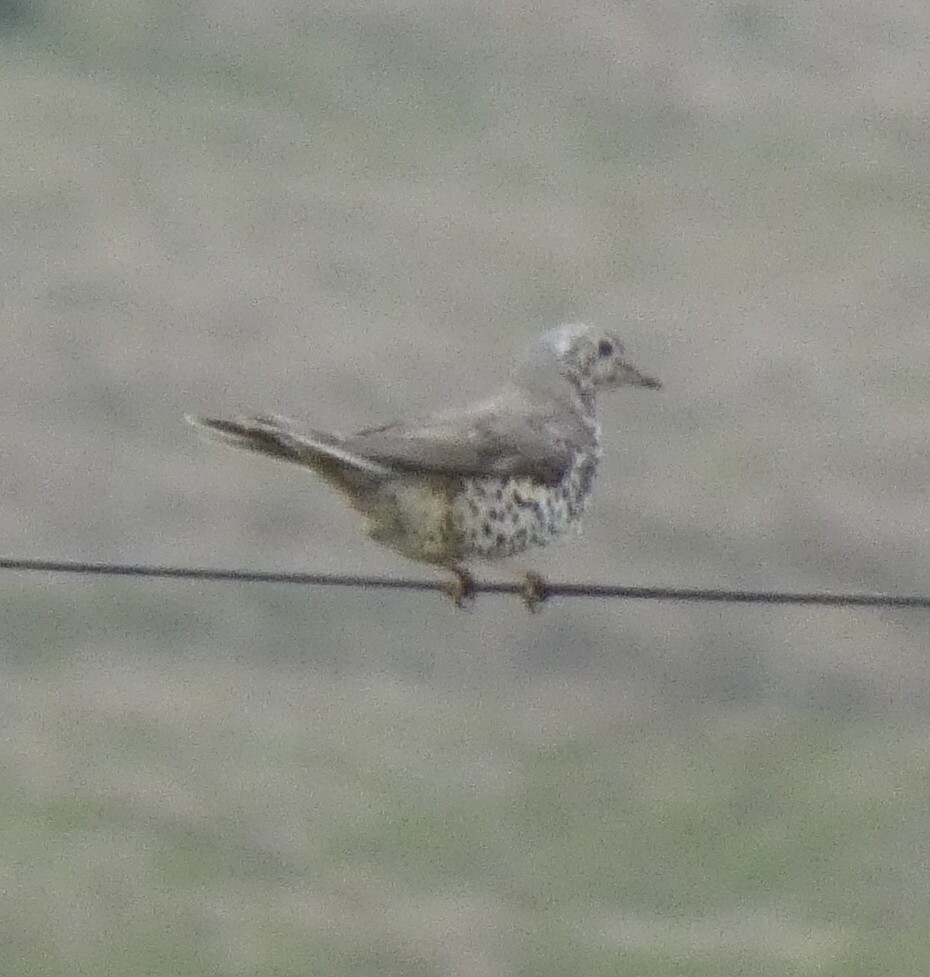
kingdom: Animalia
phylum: Chordata
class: Aves
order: Passeriformes
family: Turdidae
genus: Turdus
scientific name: Turdus viscivorus
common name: Mistle thrush
